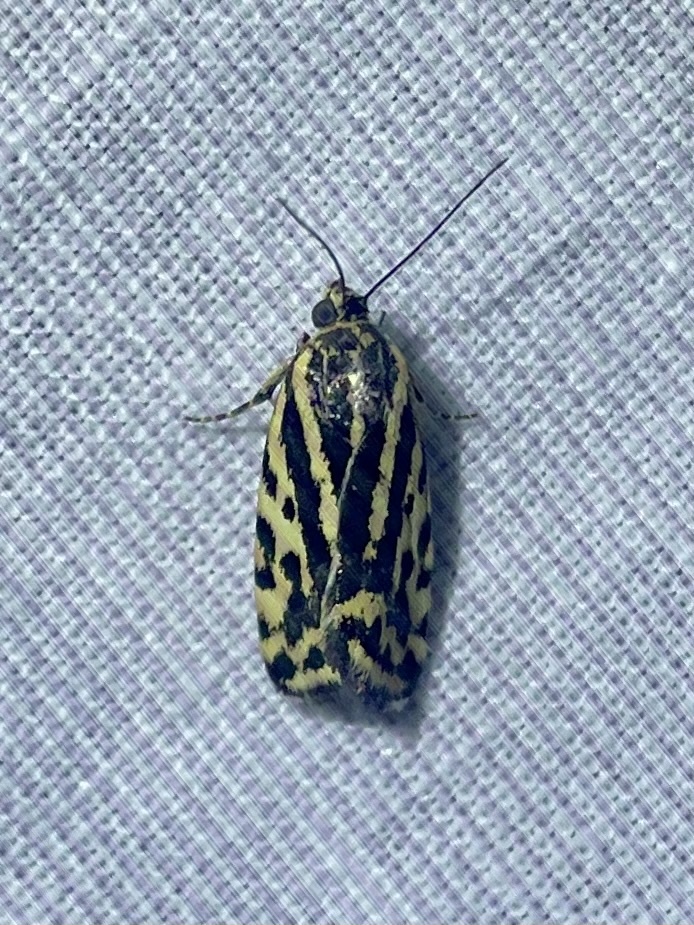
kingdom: Animalia
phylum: Arthropoda
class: Insecta
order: Lepidoptera
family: Noctuidae
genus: Acontia
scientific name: Acontia trabealis
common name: Spotted sulphur
